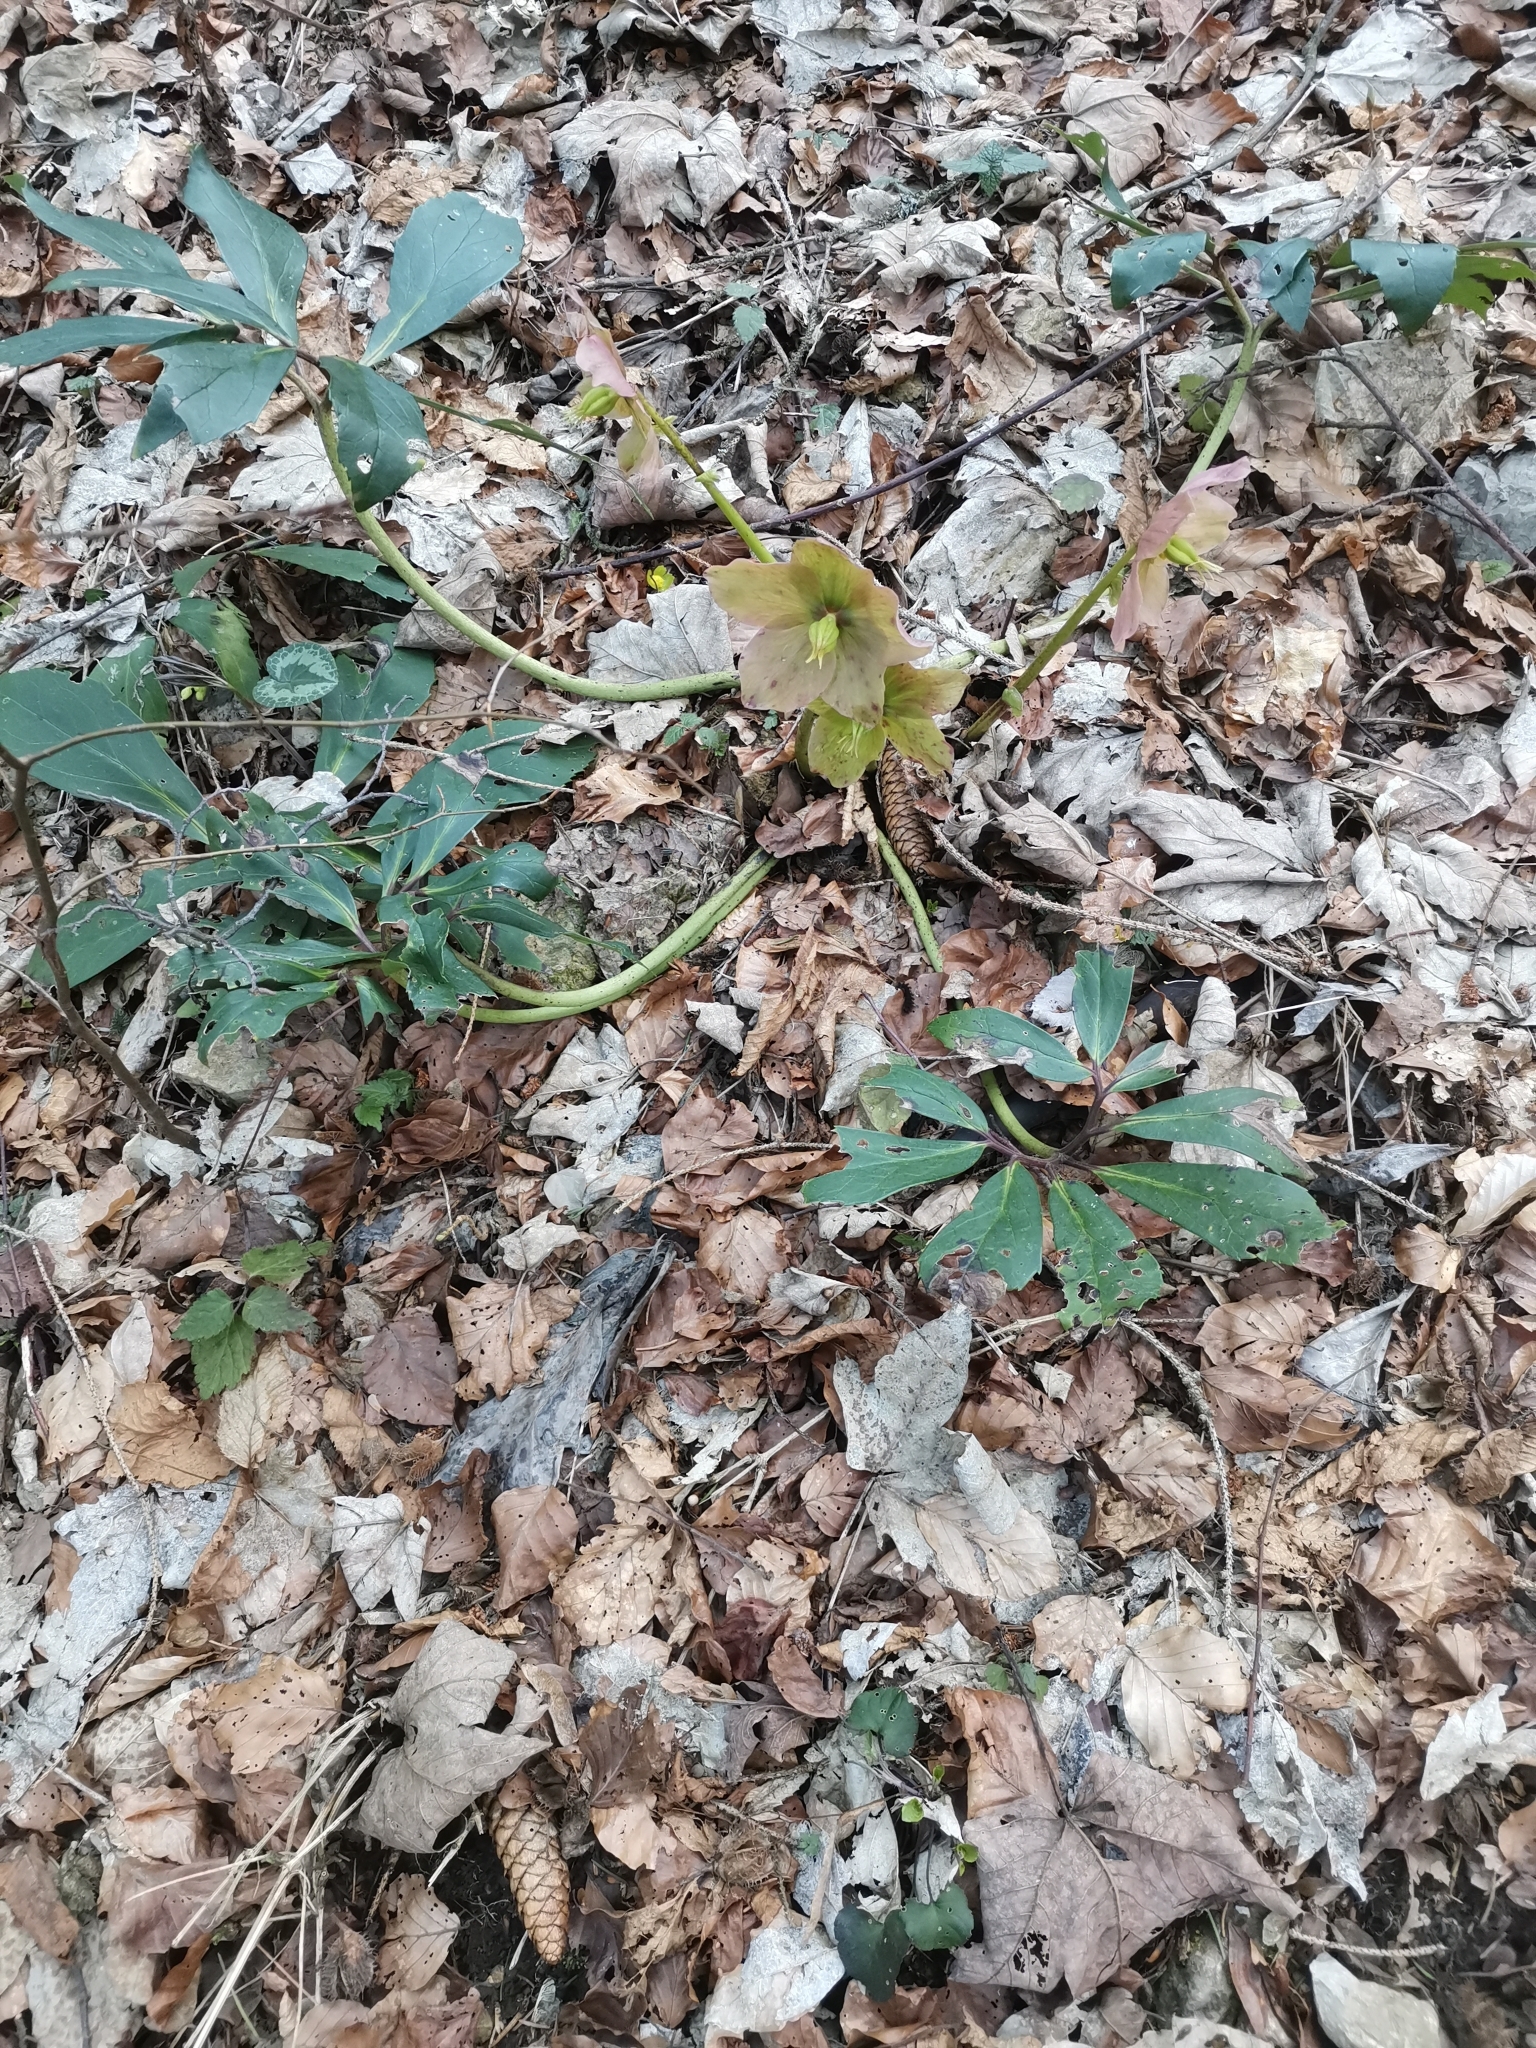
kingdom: Plantae
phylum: Tracheophyta
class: Magnoliopsida
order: Ranunculales
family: Ranunculaceae
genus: Helleborus
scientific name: Helleborus niger
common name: Black hellebore
